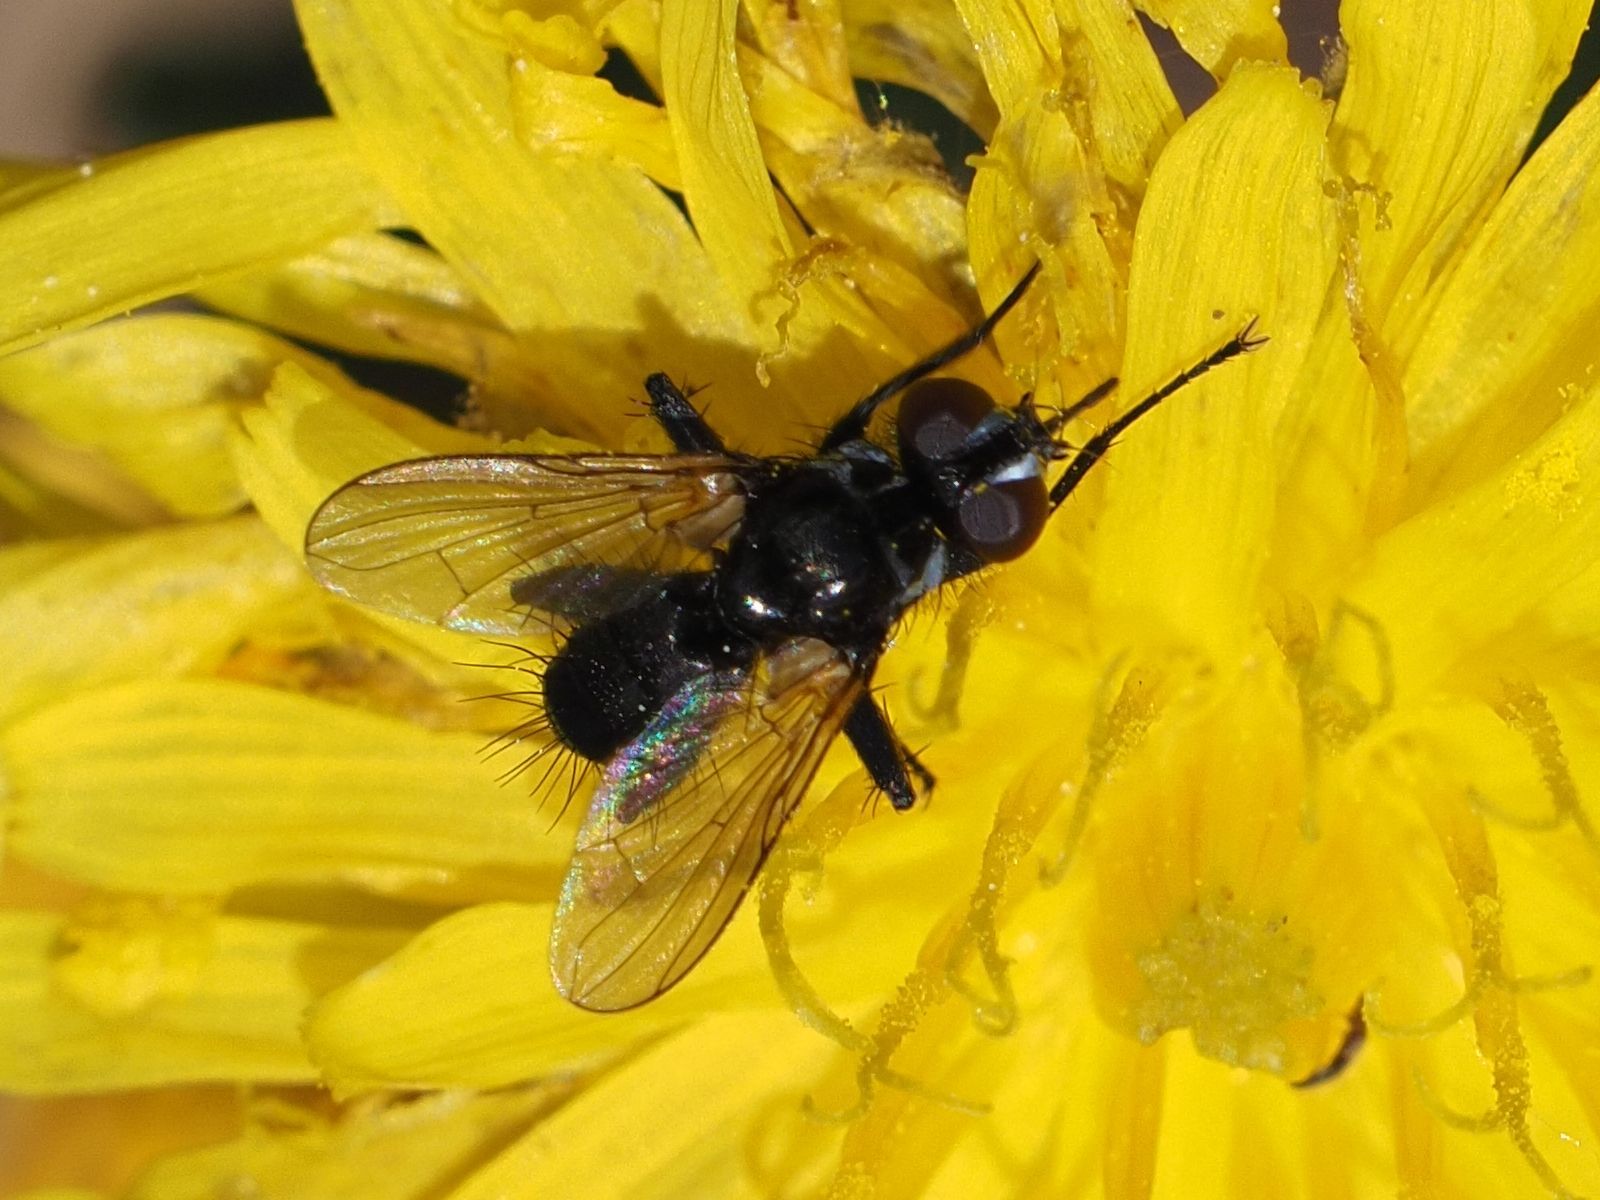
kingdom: Animalia
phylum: Arthropoda
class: Insecta
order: Diptera
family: Tachinidae
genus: Phania
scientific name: Phania funesta
